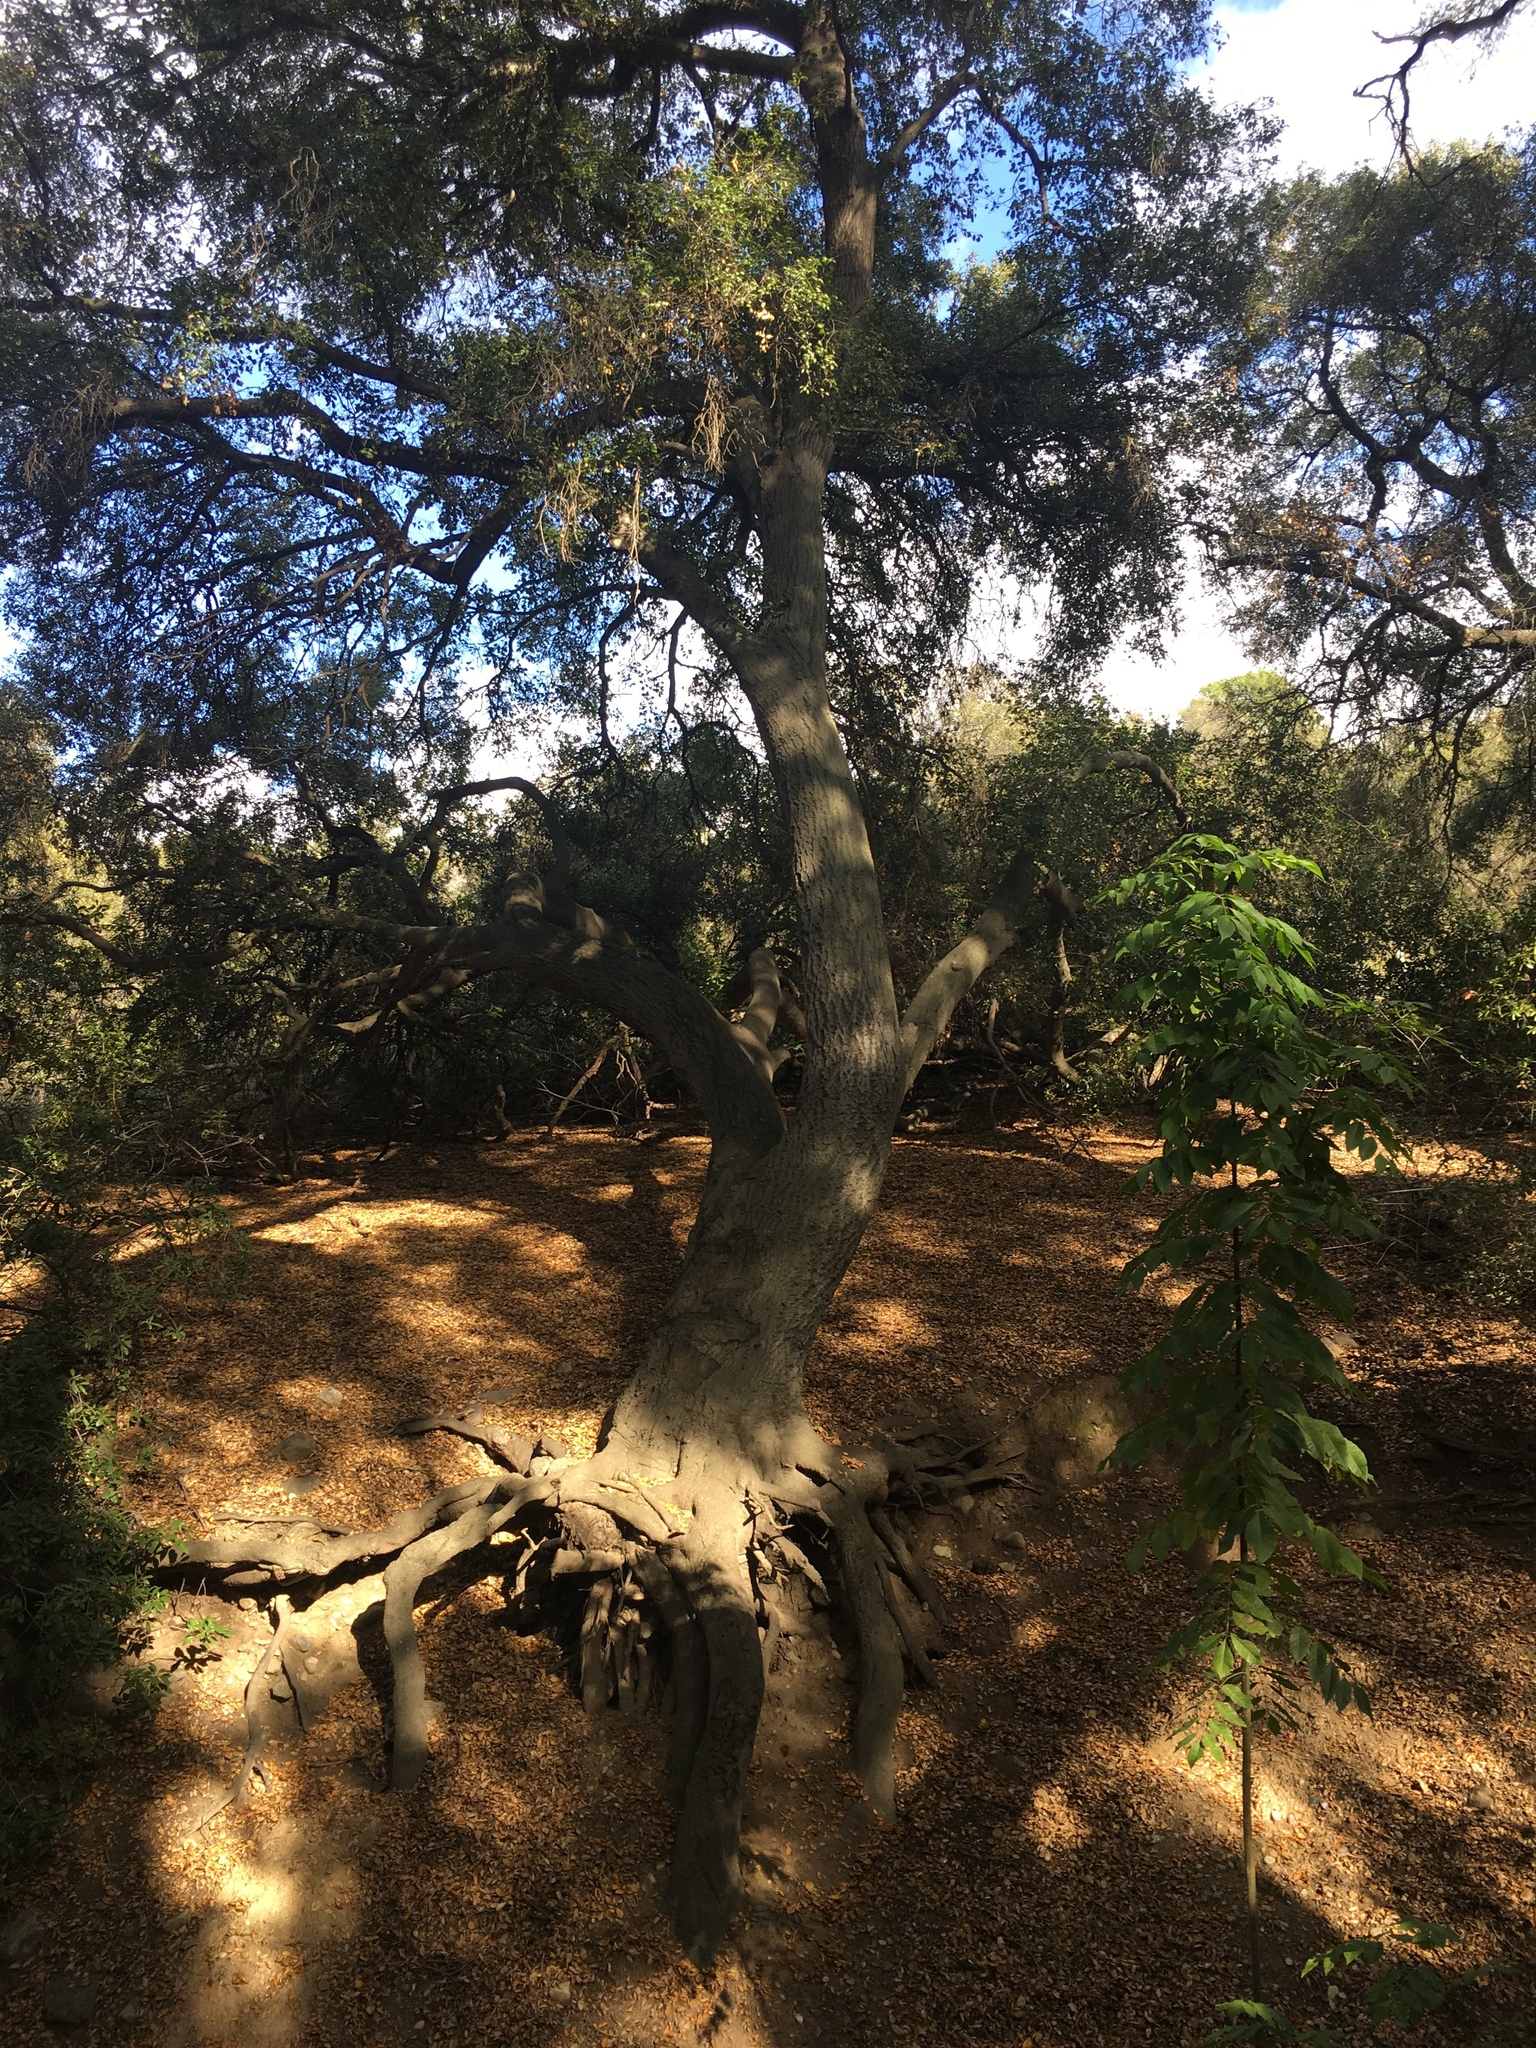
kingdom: Plantae
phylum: Tracheophyta
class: Magnoliopsida
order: Fagales
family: Fagaceae
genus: Quercus
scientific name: Quercus agrifolia
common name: California live oak
